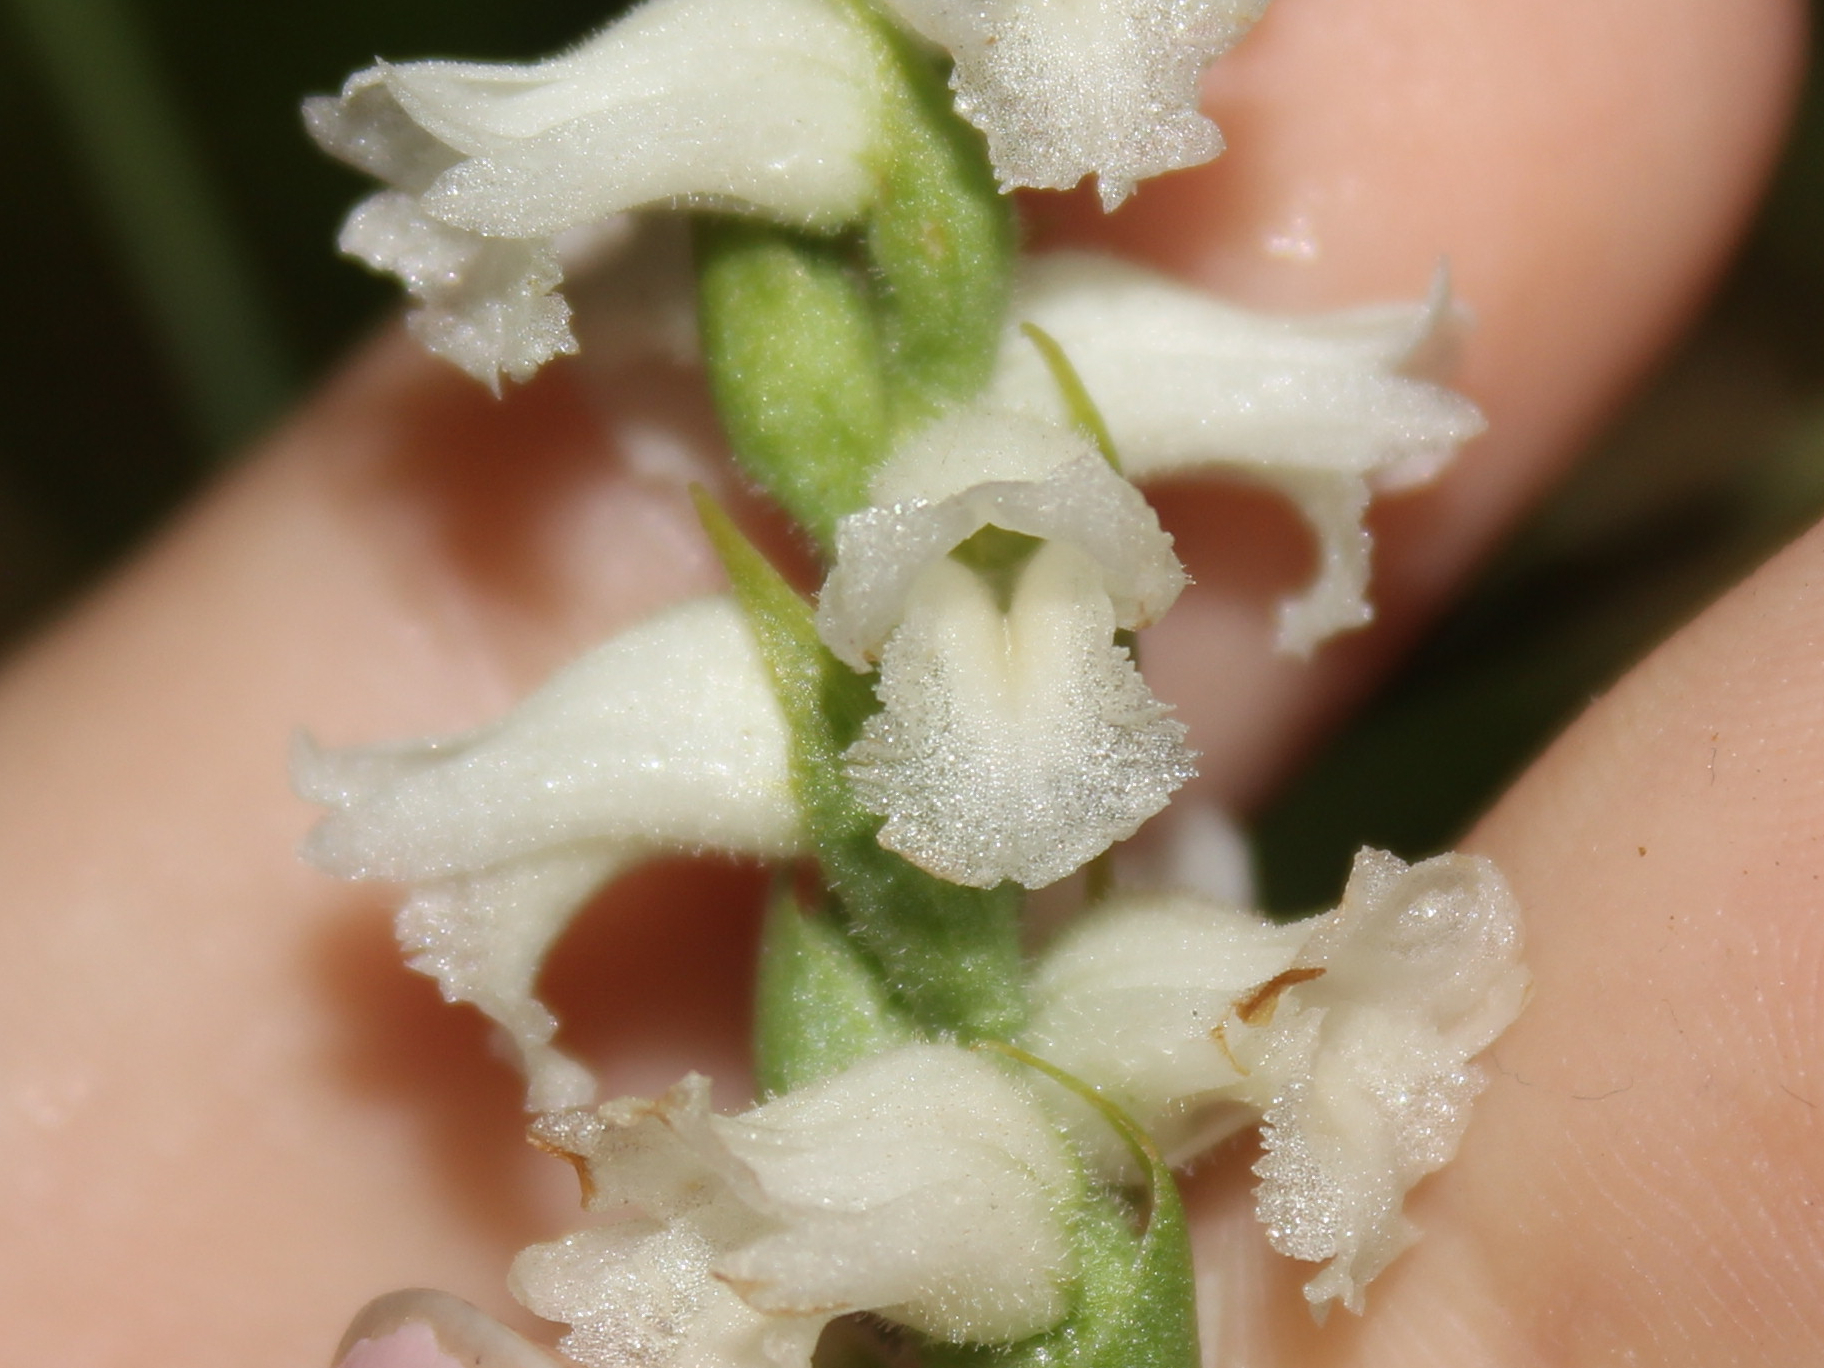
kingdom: Plantae
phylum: Tracheophyta
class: Liliopsida
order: Asparagales
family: Orchidaceae
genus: Spiranthes
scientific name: Spiranthes arcisepala
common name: Appalachian ladies'-tresses
